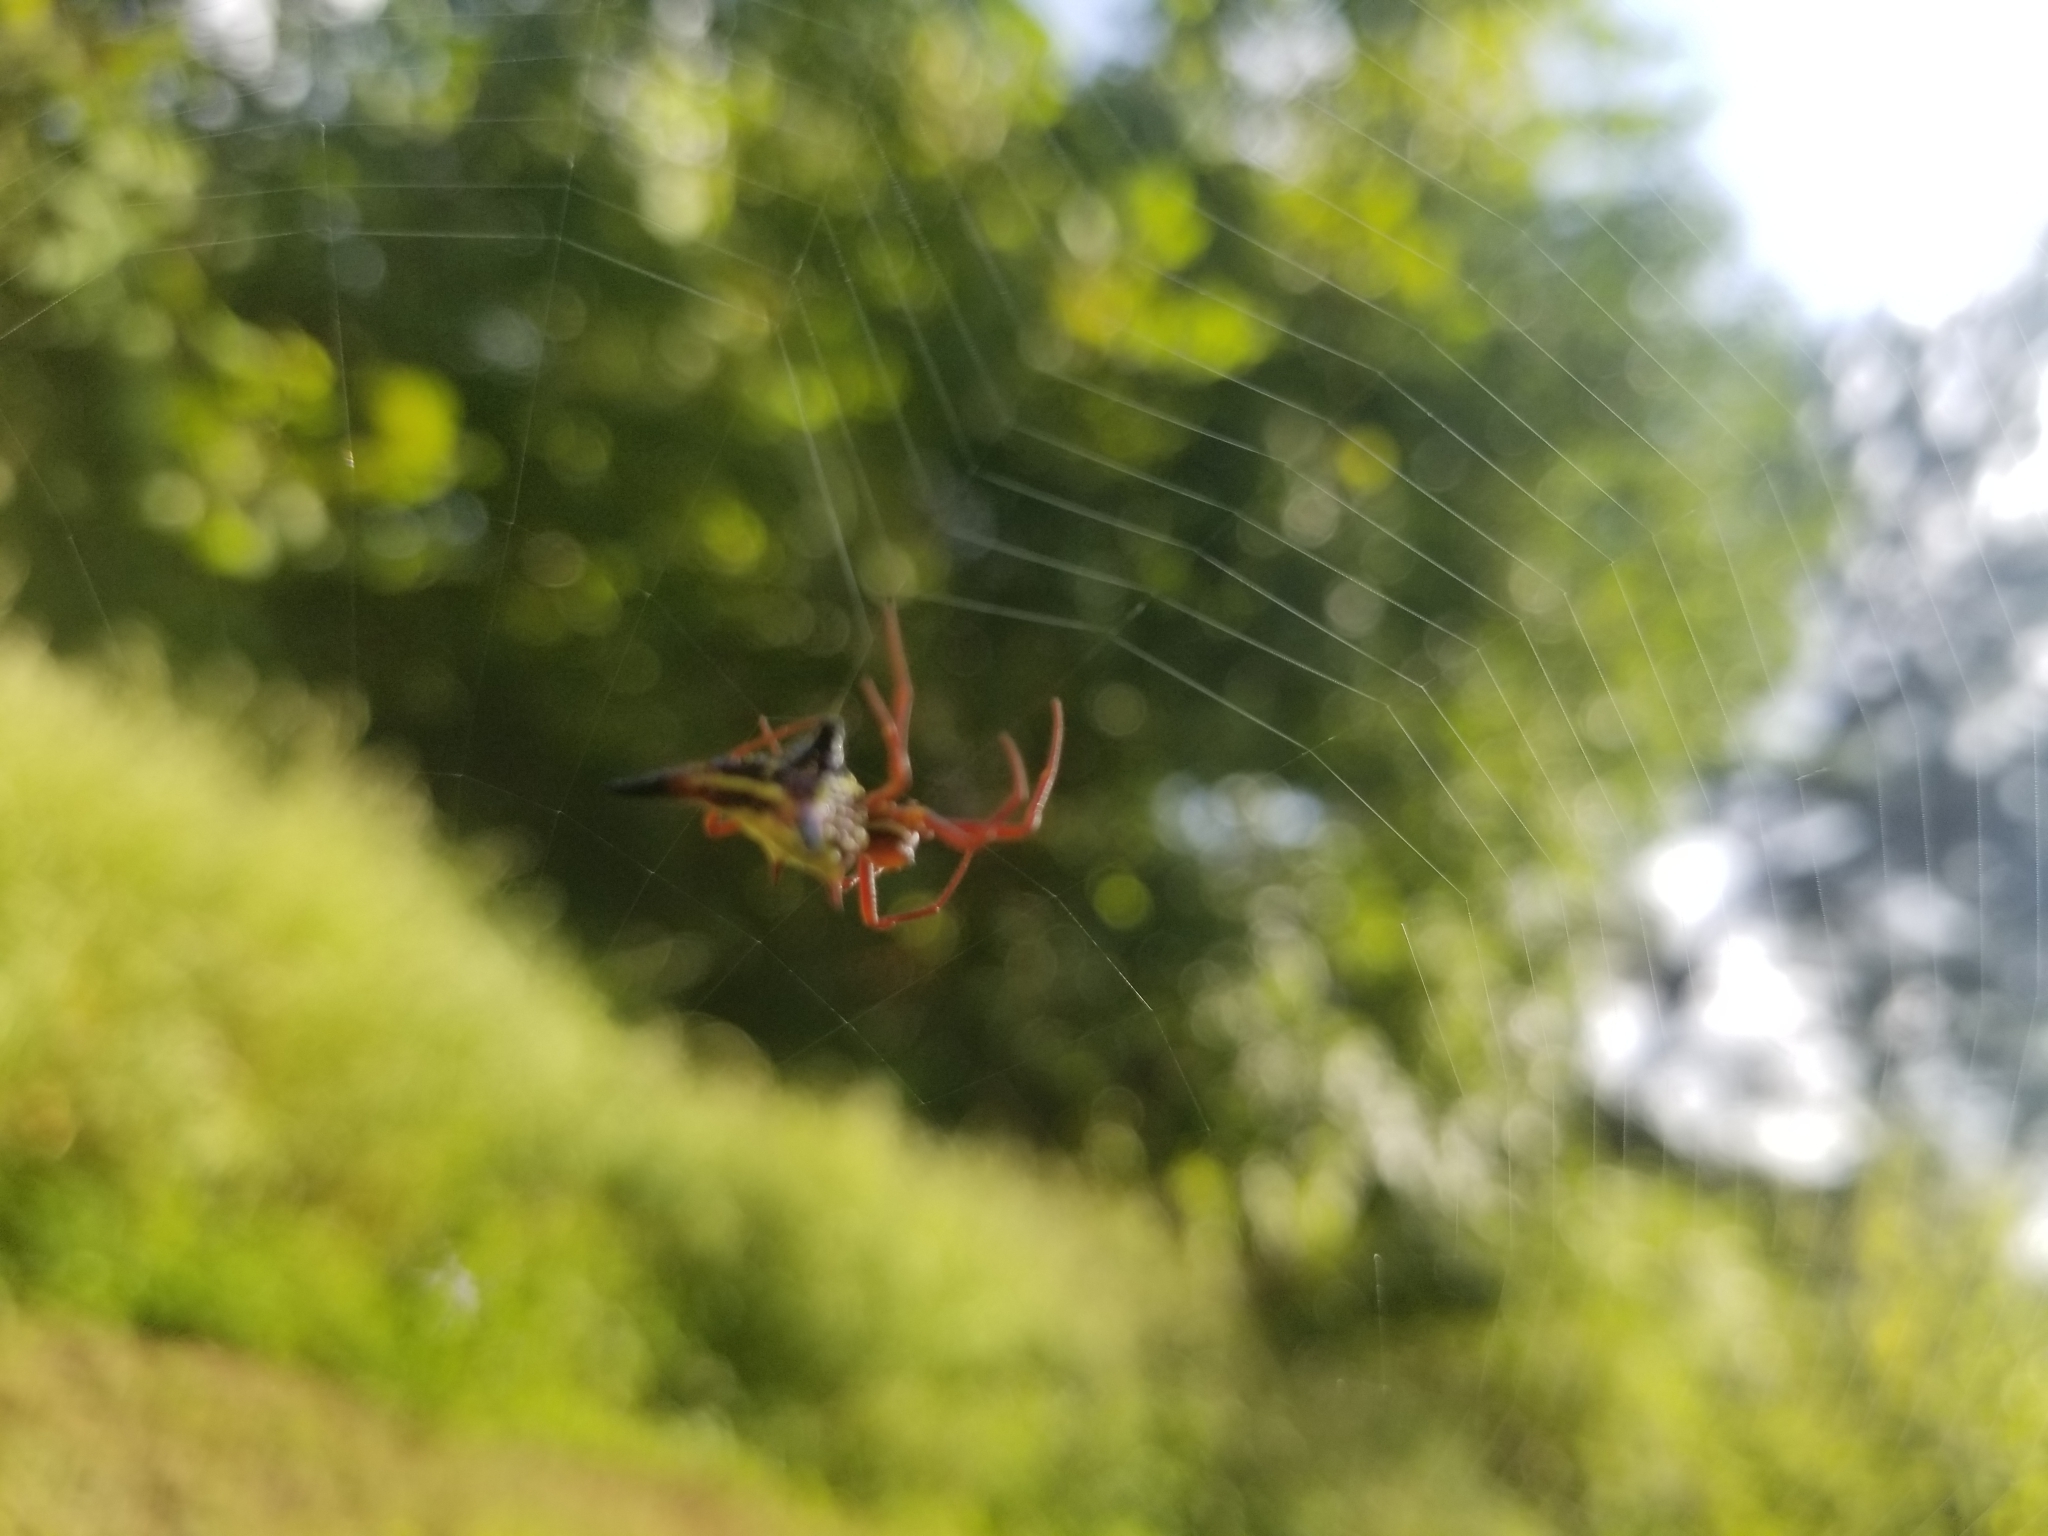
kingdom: Animalia
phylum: Arthropoda
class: Arachnida
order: Araneae
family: Araneidae
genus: Micrathena
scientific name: Micrathena sagittata
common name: Orb weavers
